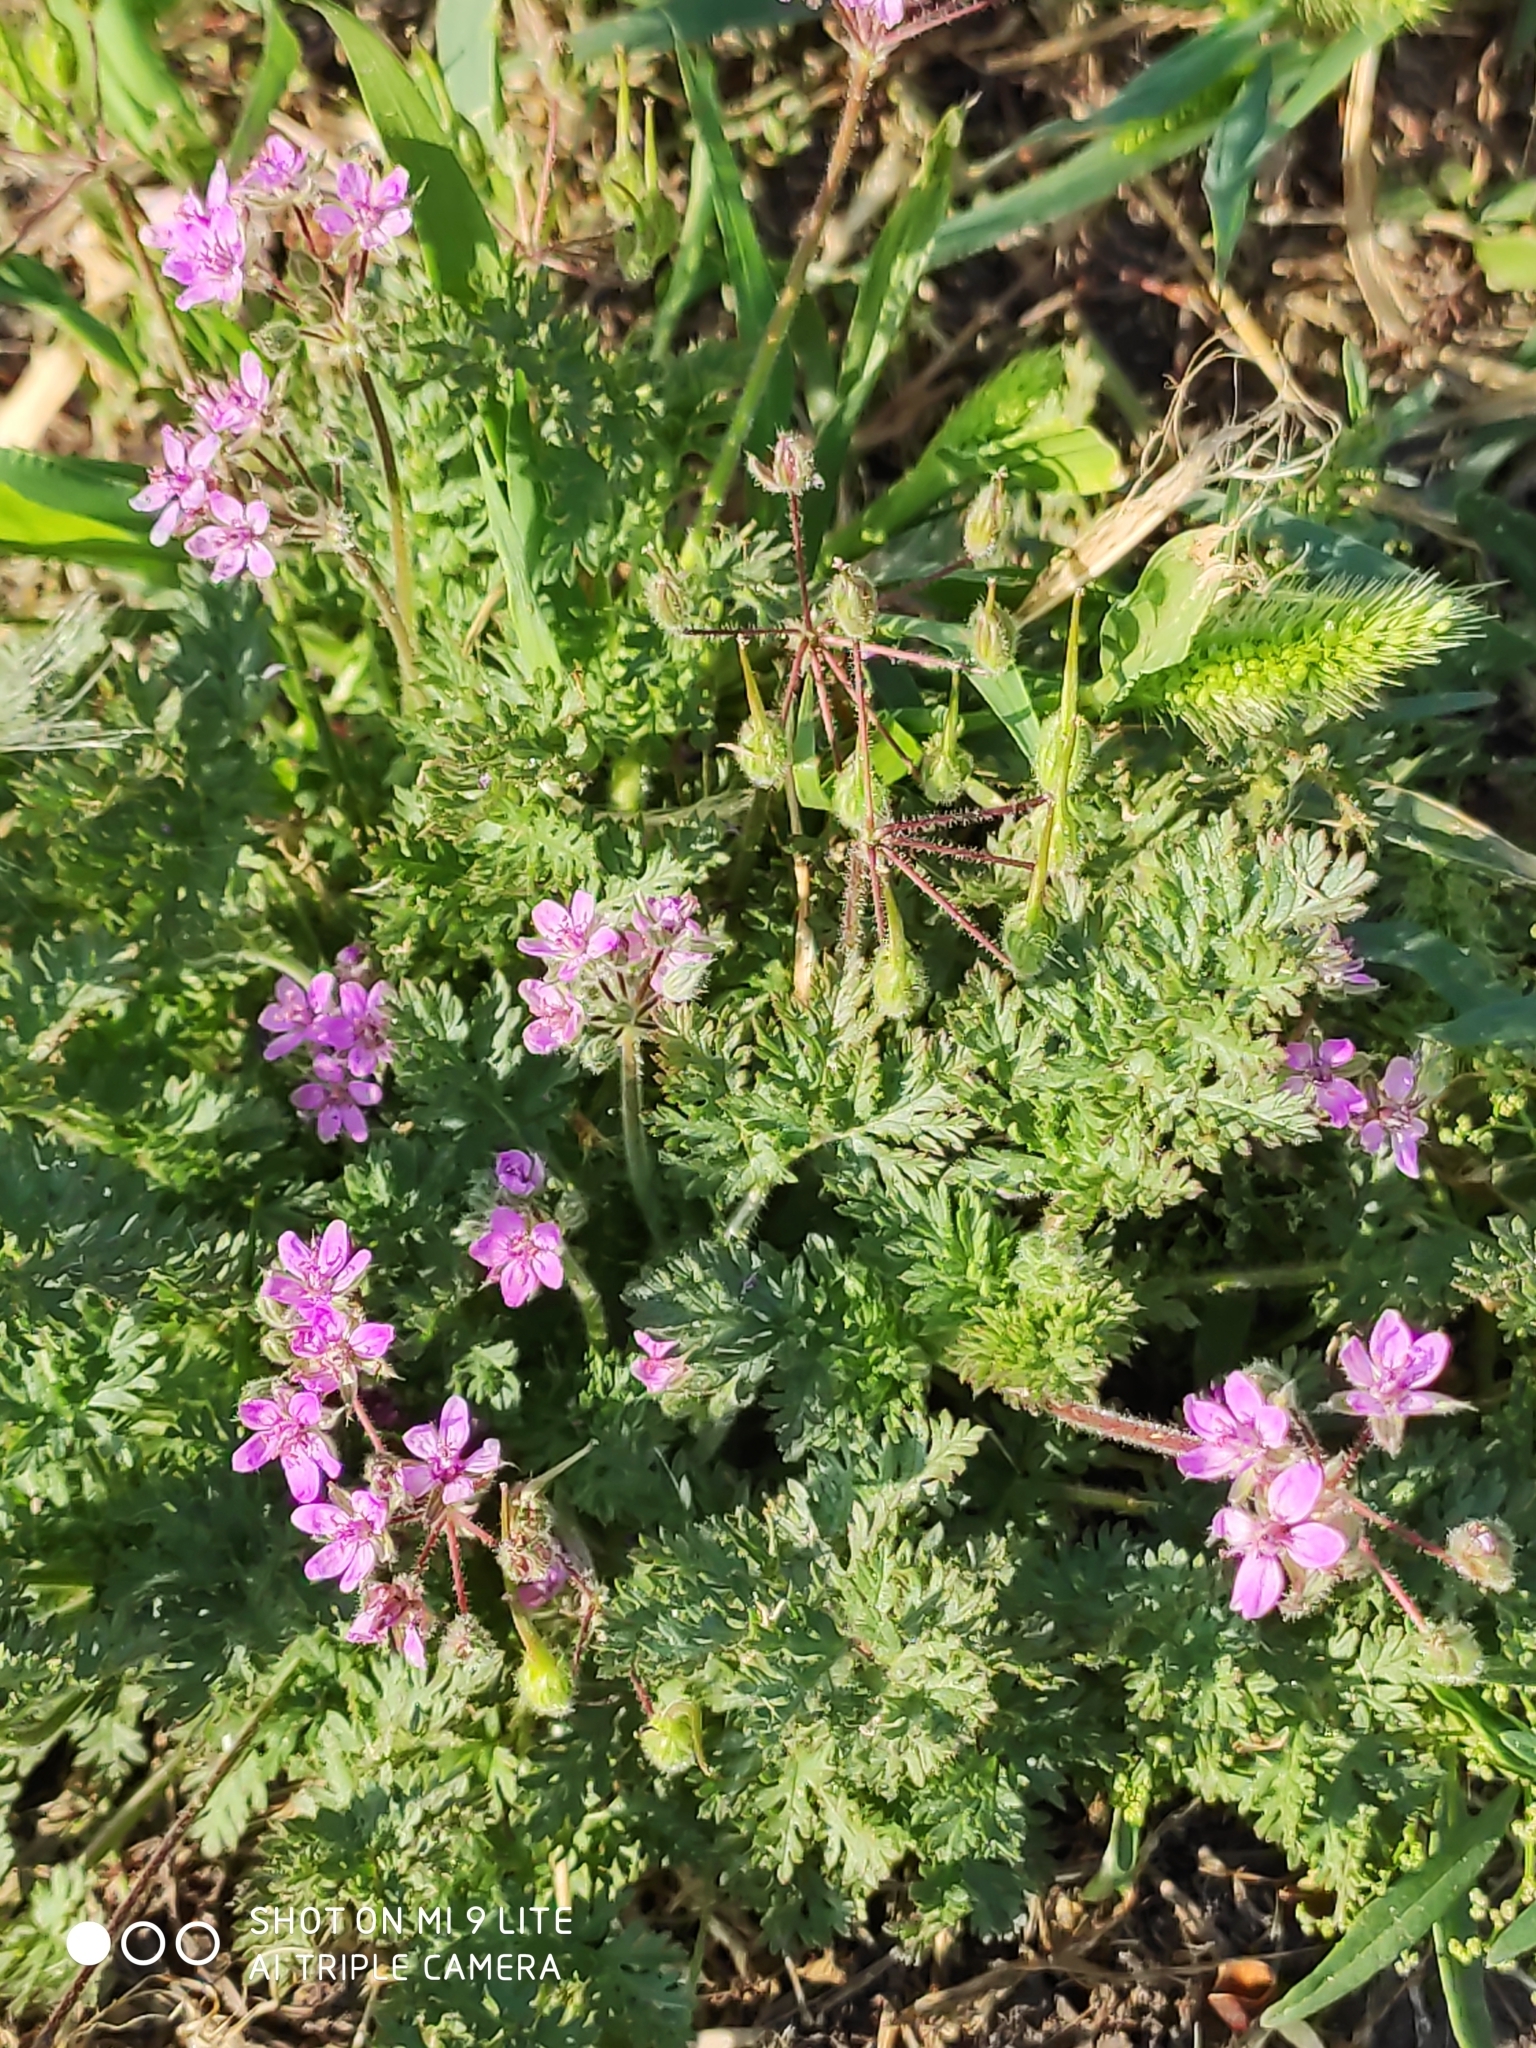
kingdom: Plantae
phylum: Tracheophyta
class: Magnoliopsida
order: Geraniales
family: Geraniaceae
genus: Erodium
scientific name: Erodium cicutarium
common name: Common stork's-bill
